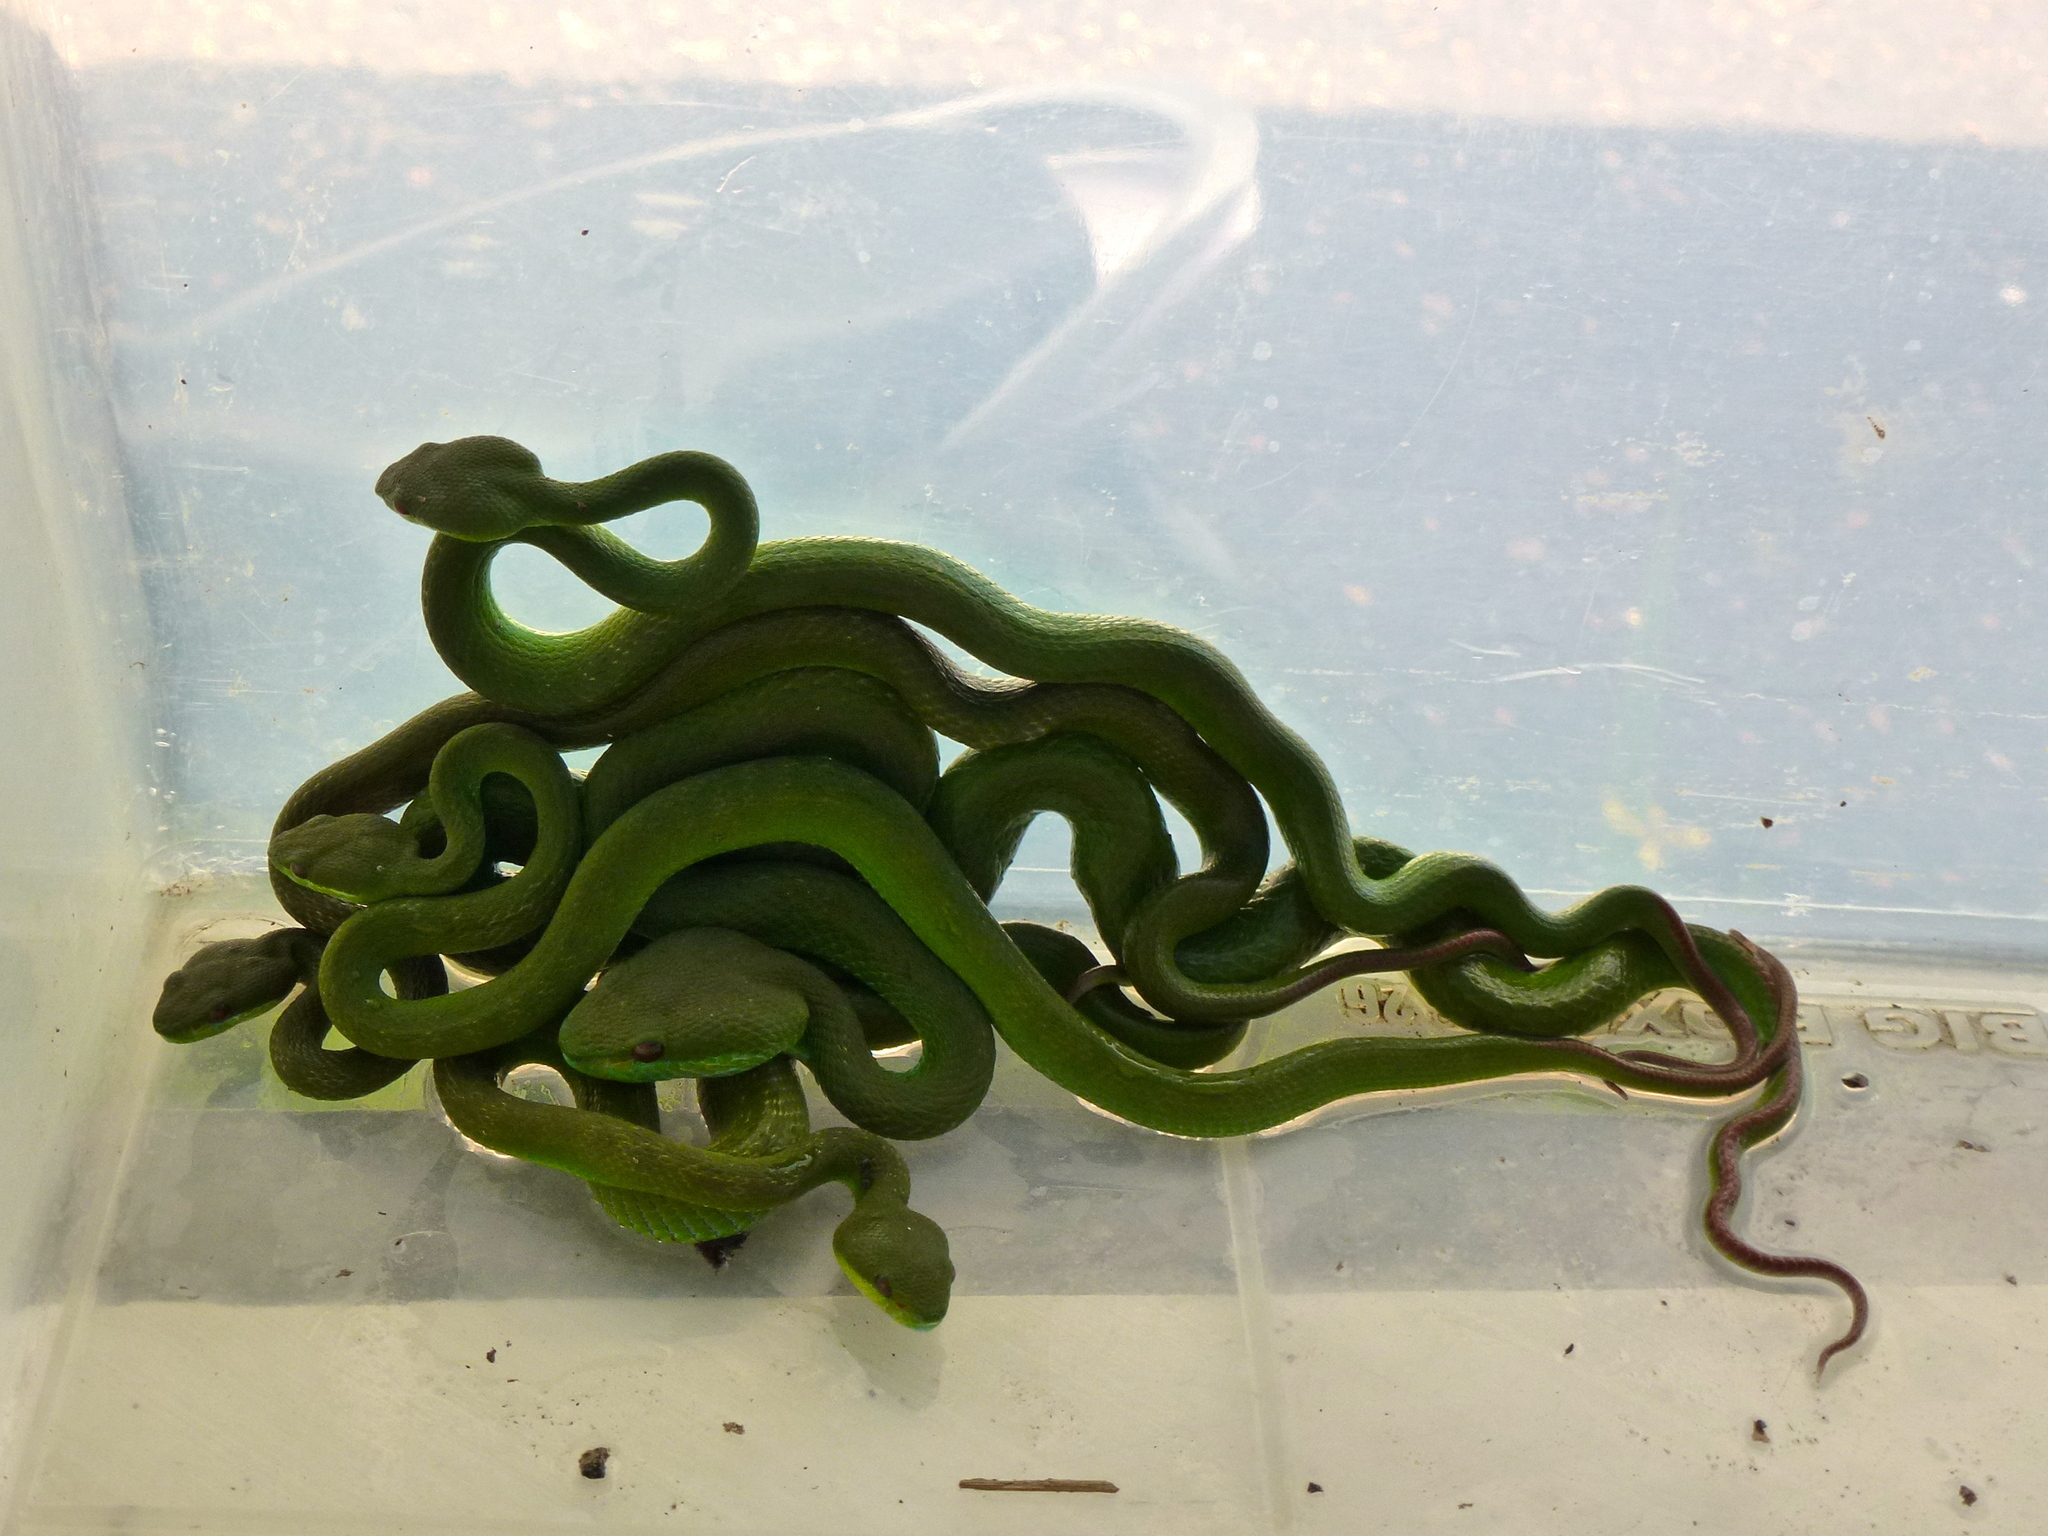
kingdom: Animalia
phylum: Chordata
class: Squamata
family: Viperidae
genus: Trimeresurus
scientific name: Trimeresurus insularis
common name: White-lipped island pitviper
